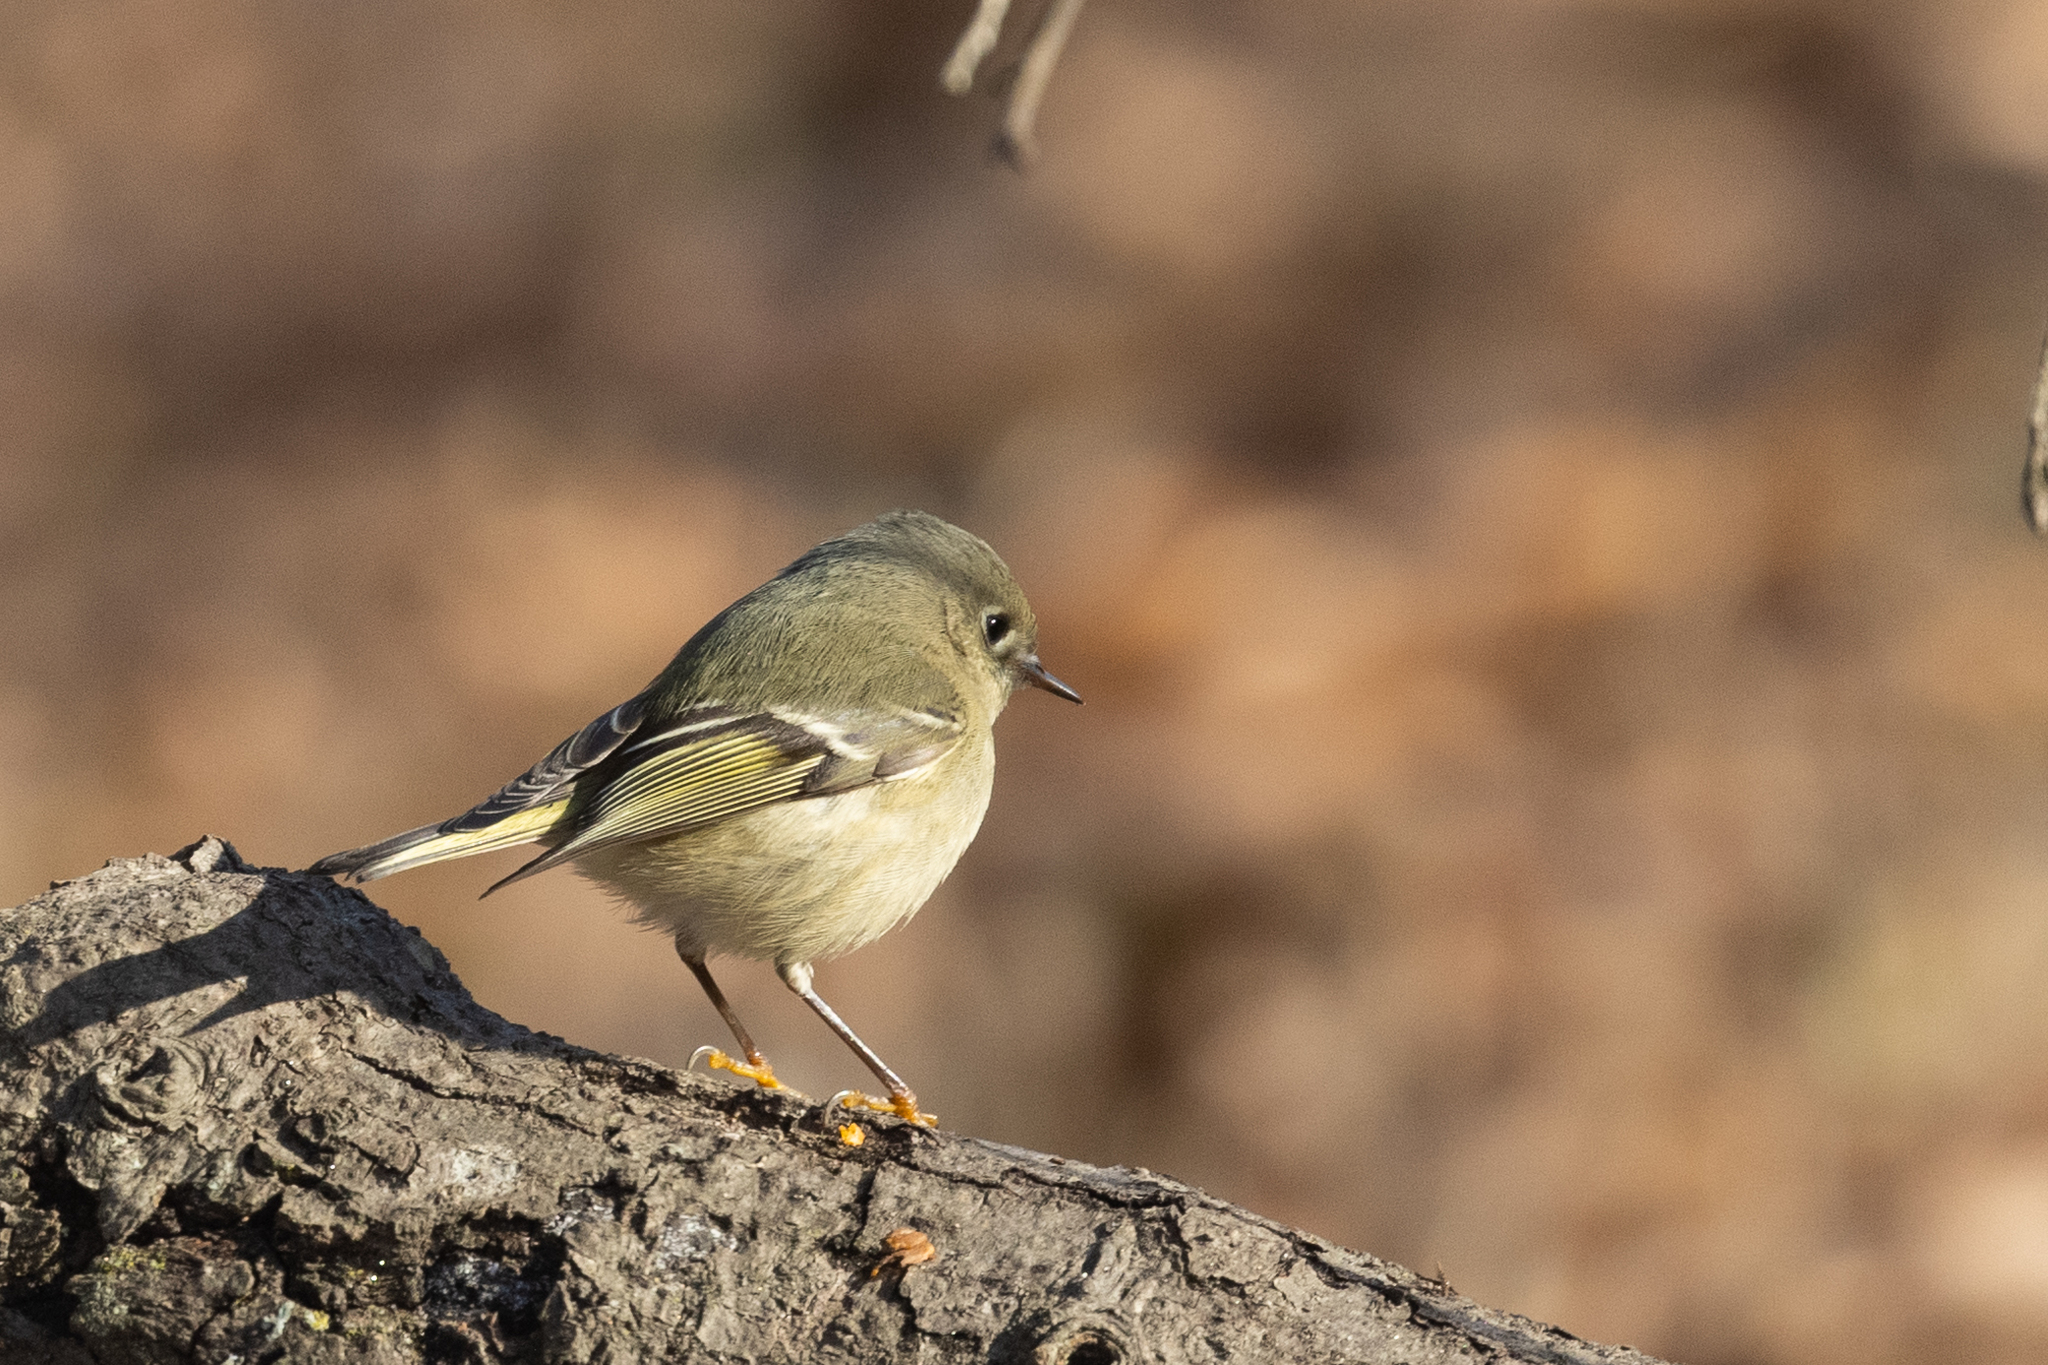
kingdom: Animalia
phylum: Chordata
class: Aves
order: Passeriformes
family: Regulidae
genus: Regulus
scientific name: Regulus calendula
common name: Ruby-crowned kinglet
